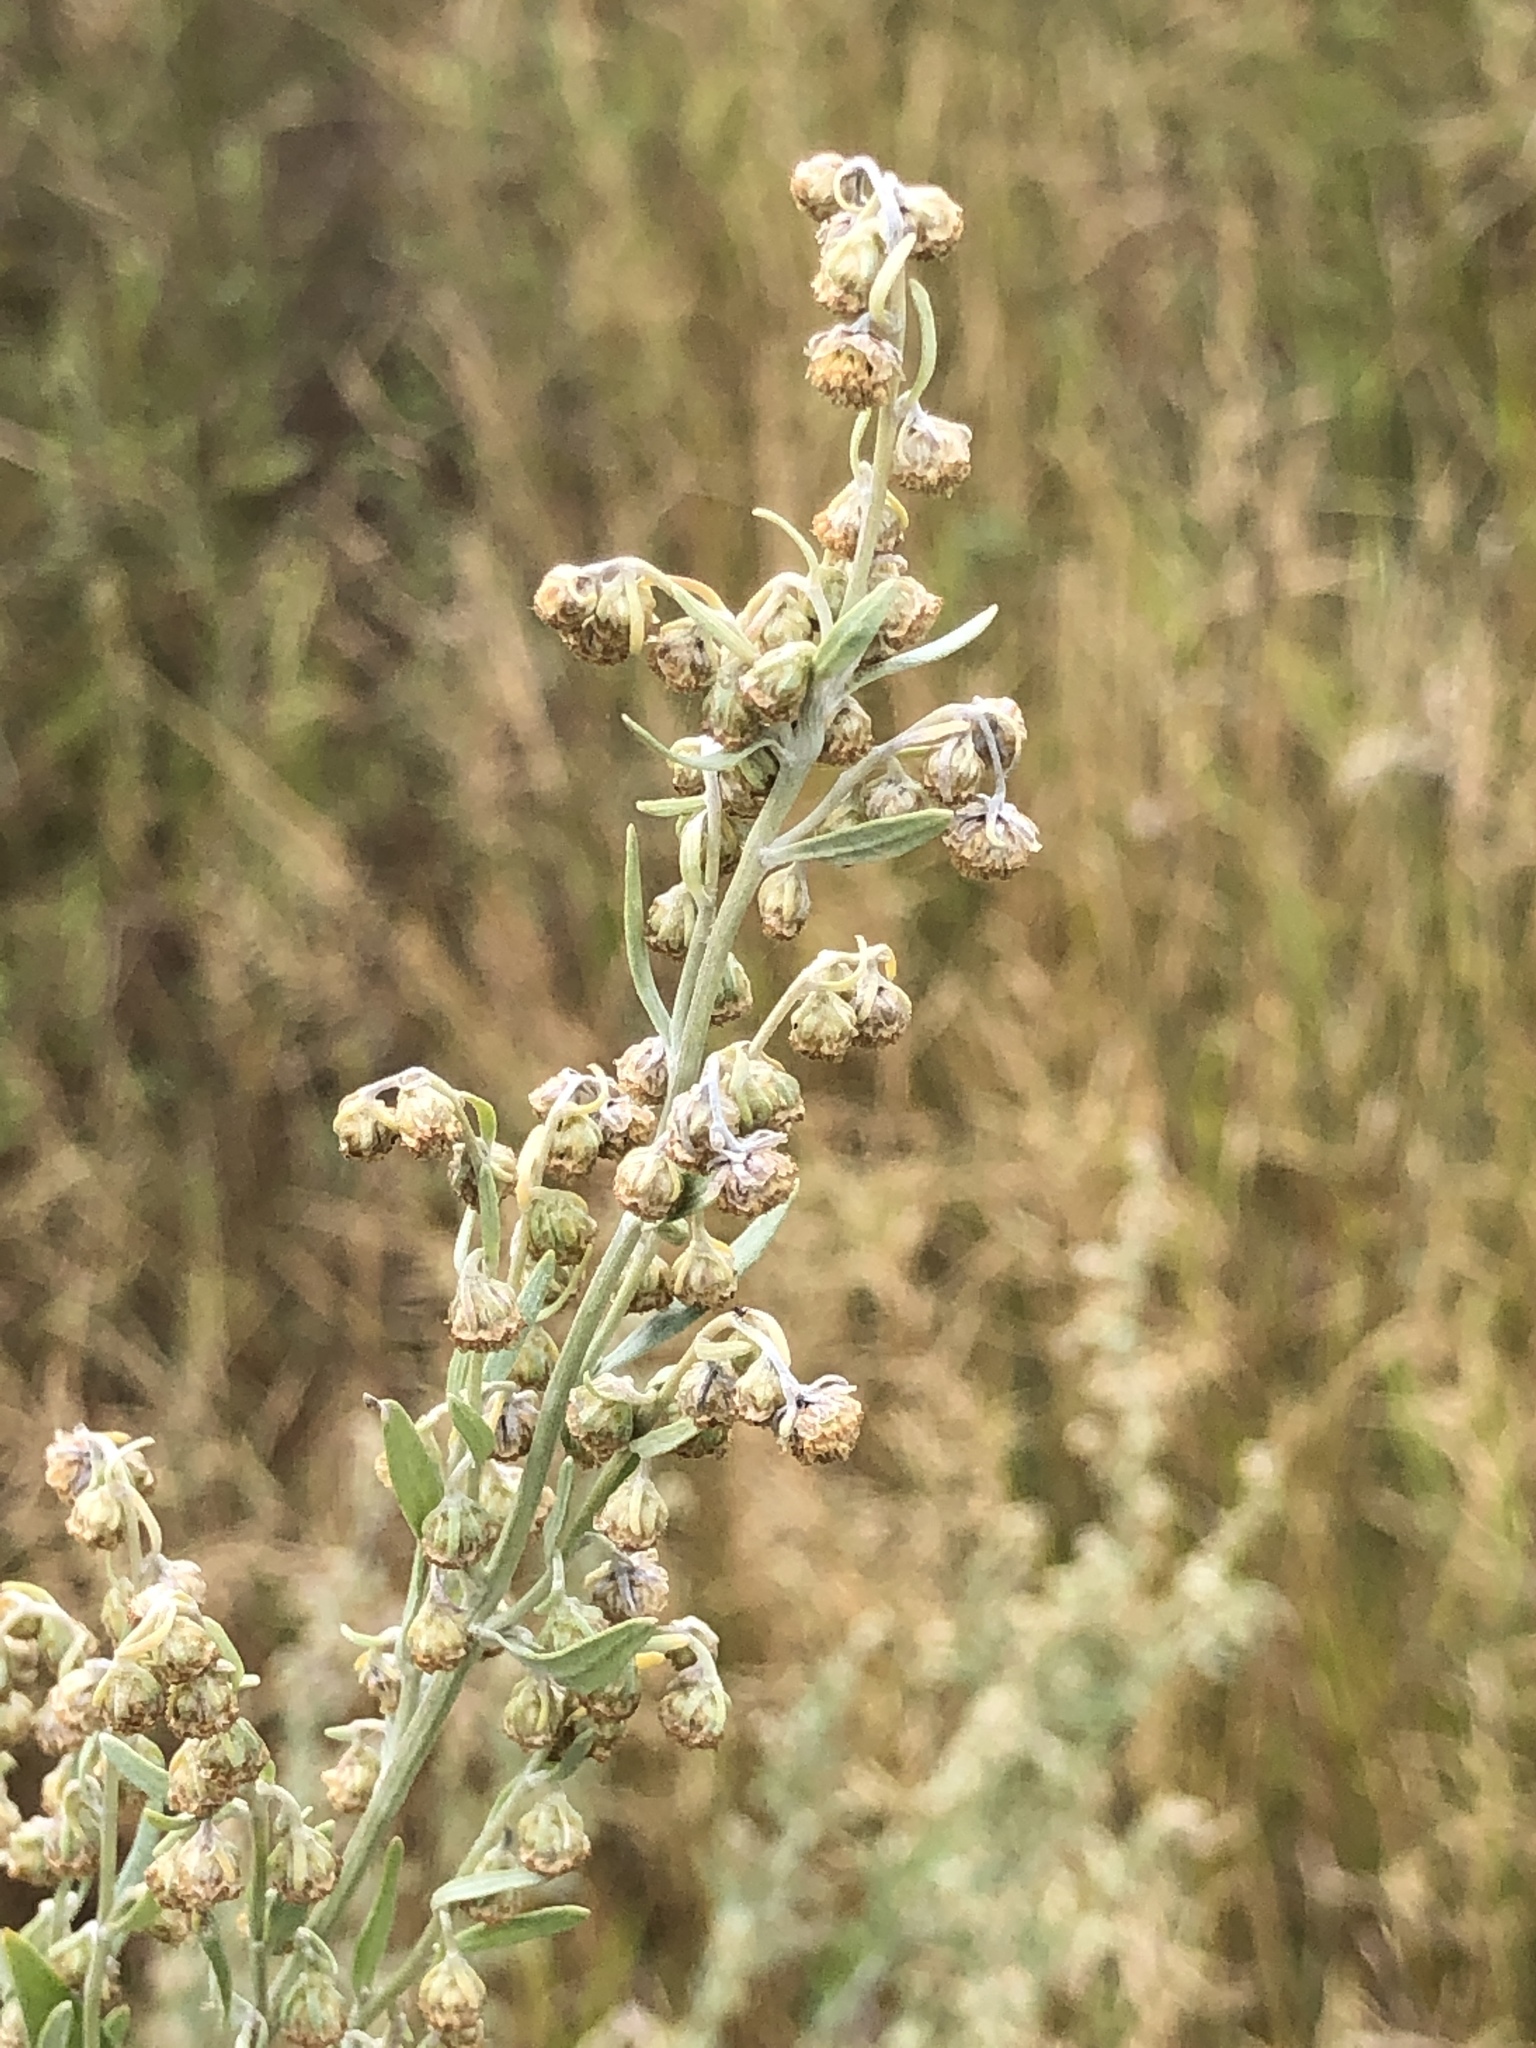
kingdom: Plantae
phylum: Tracheophyta
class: Magnoliopsida
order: Asterales
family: Asteraceae
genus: Artemisia
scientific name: Artemisia absinthium
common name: Wormwood
